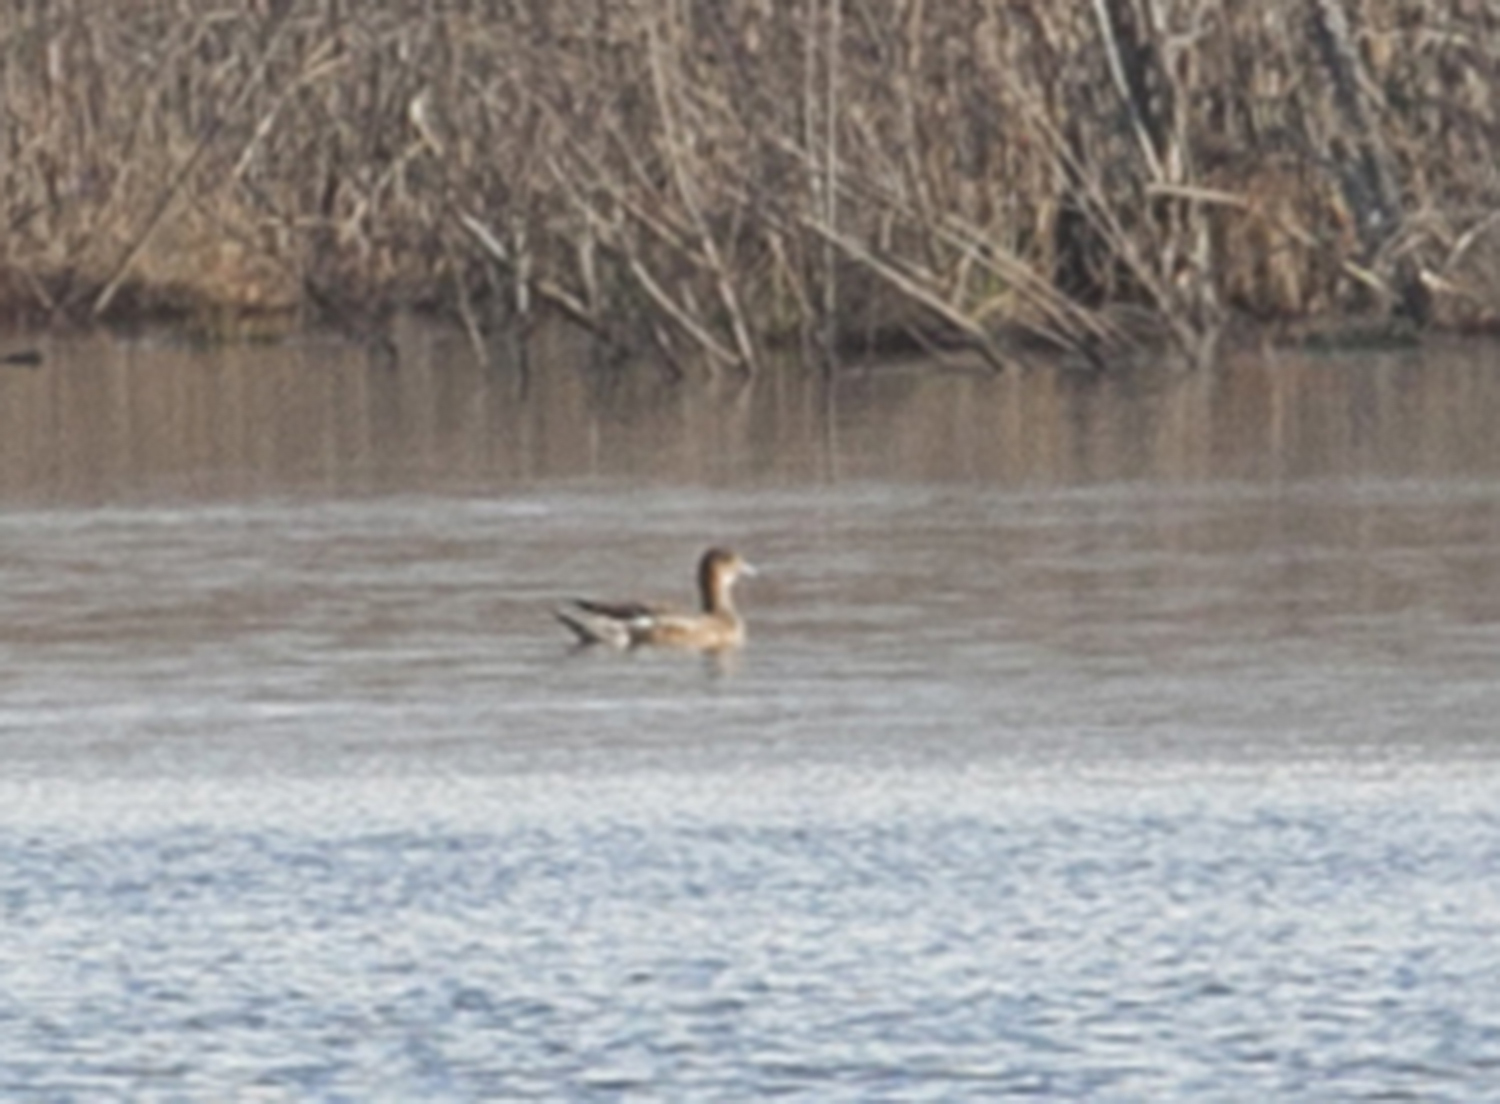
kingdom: Animalia
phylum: Chordata
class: Aves
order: Anseriformes
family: Anatidae
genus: Mareca
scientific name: Mareca penelope
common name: Eurasian wigeon
